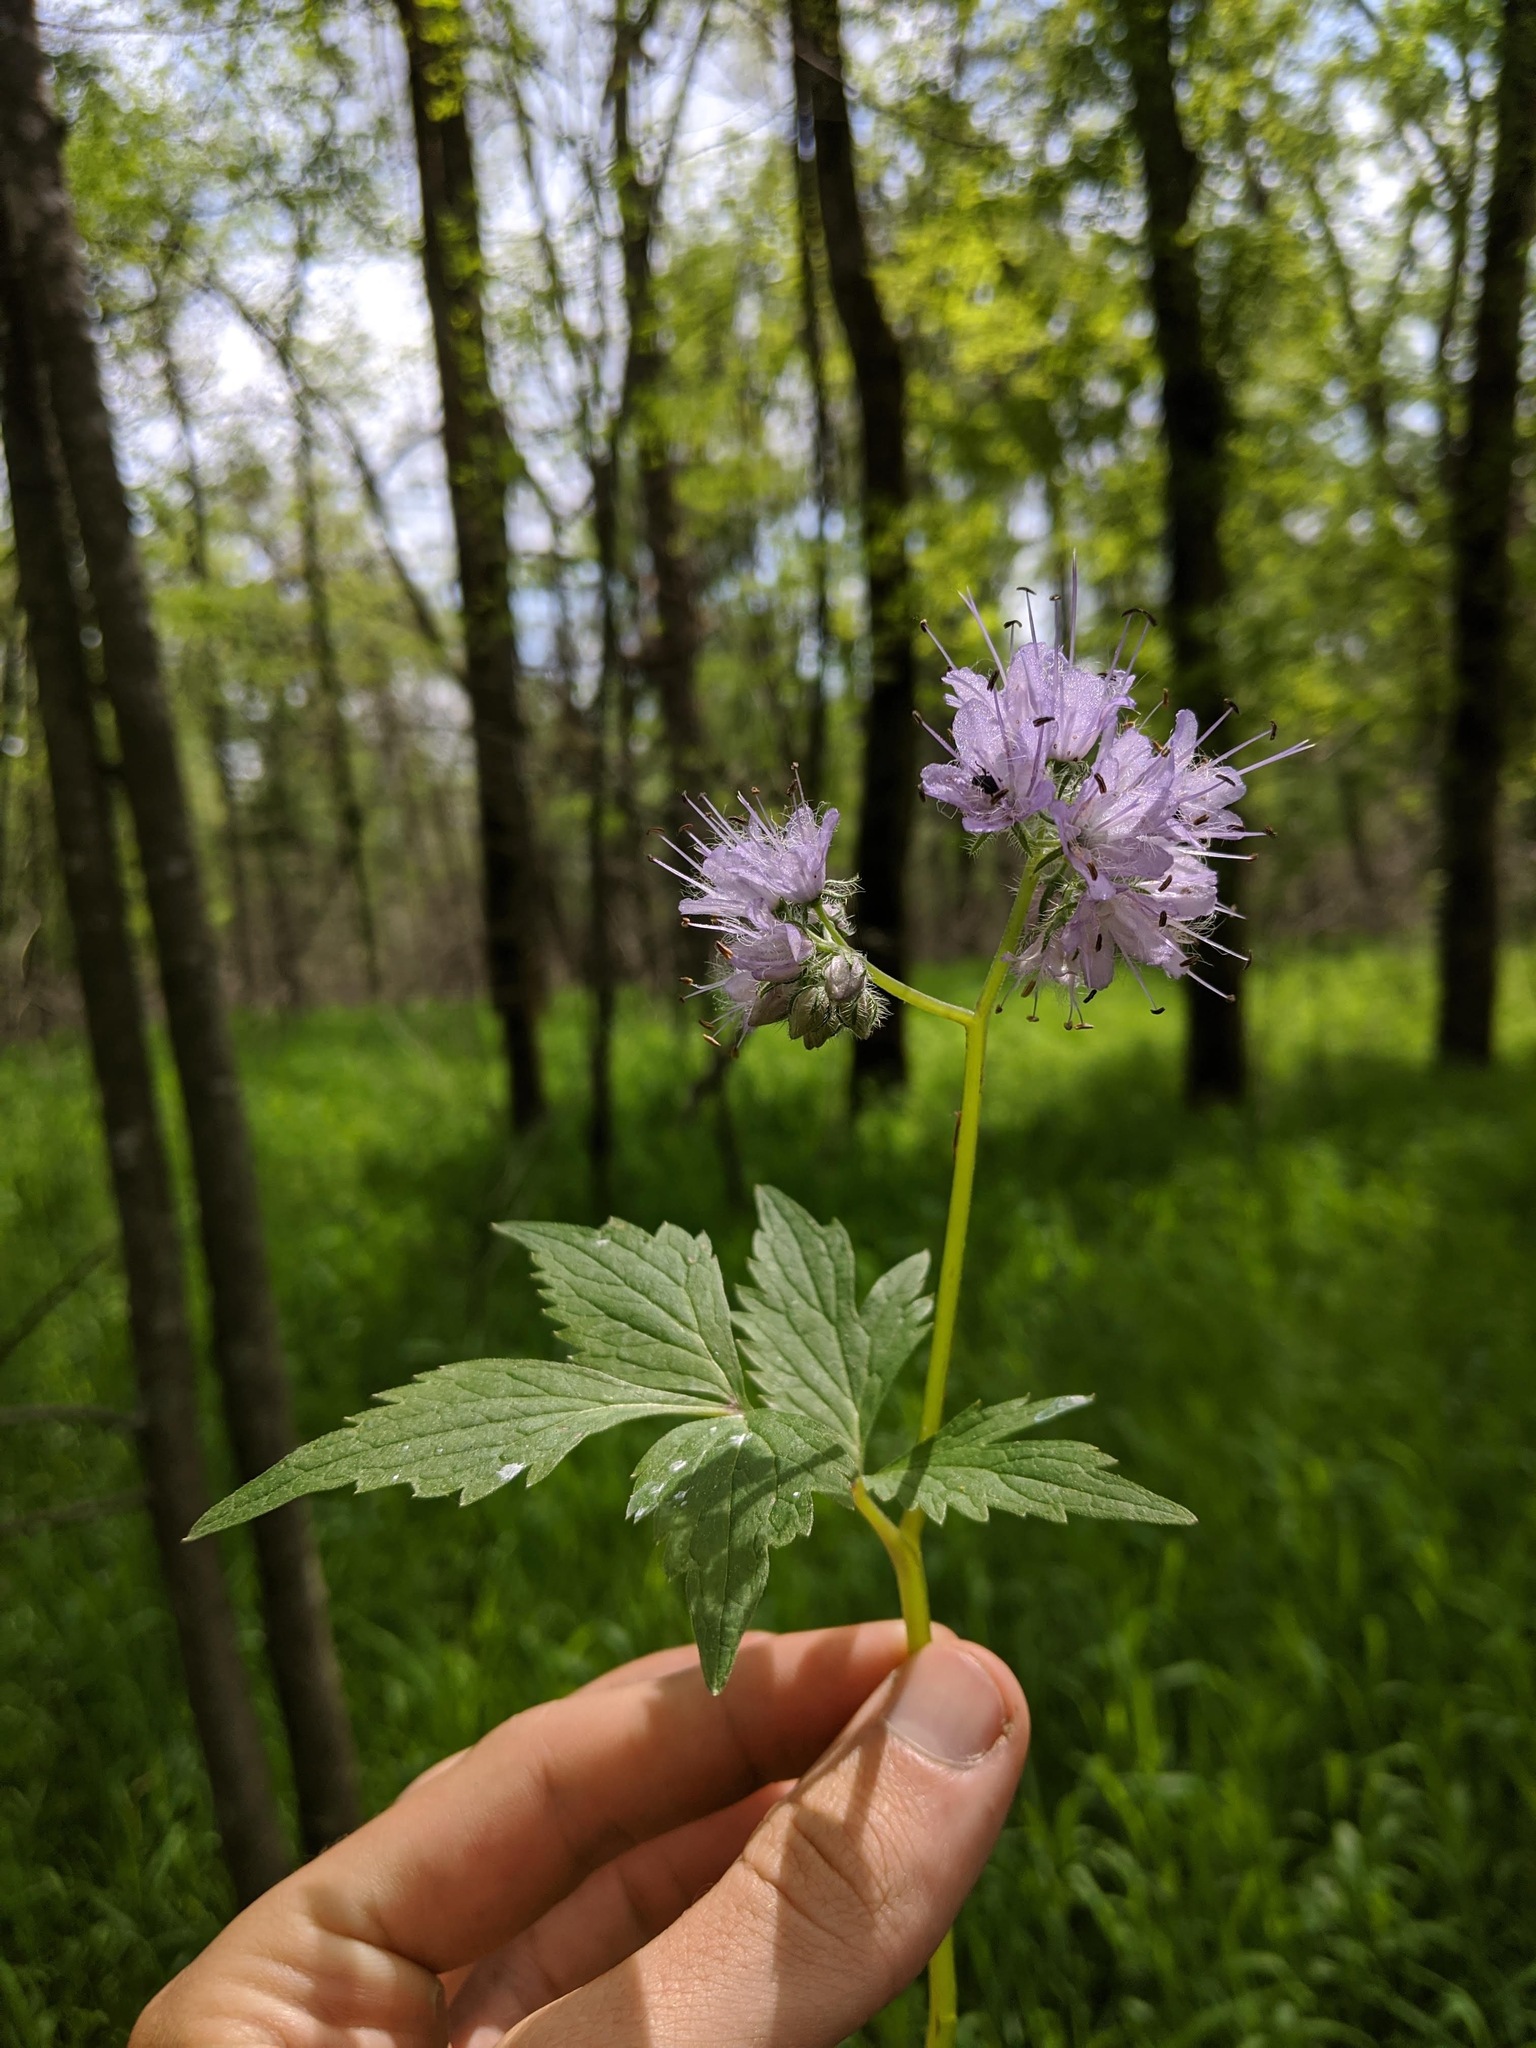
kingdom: Plantae
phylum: Tracheophyta
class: Magnoliopsida
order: Boraginales
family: Hydrophyllaceae
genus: Hydrophyllum
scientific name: Hydrophyllum virginianum
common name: Virginia waterleaf
